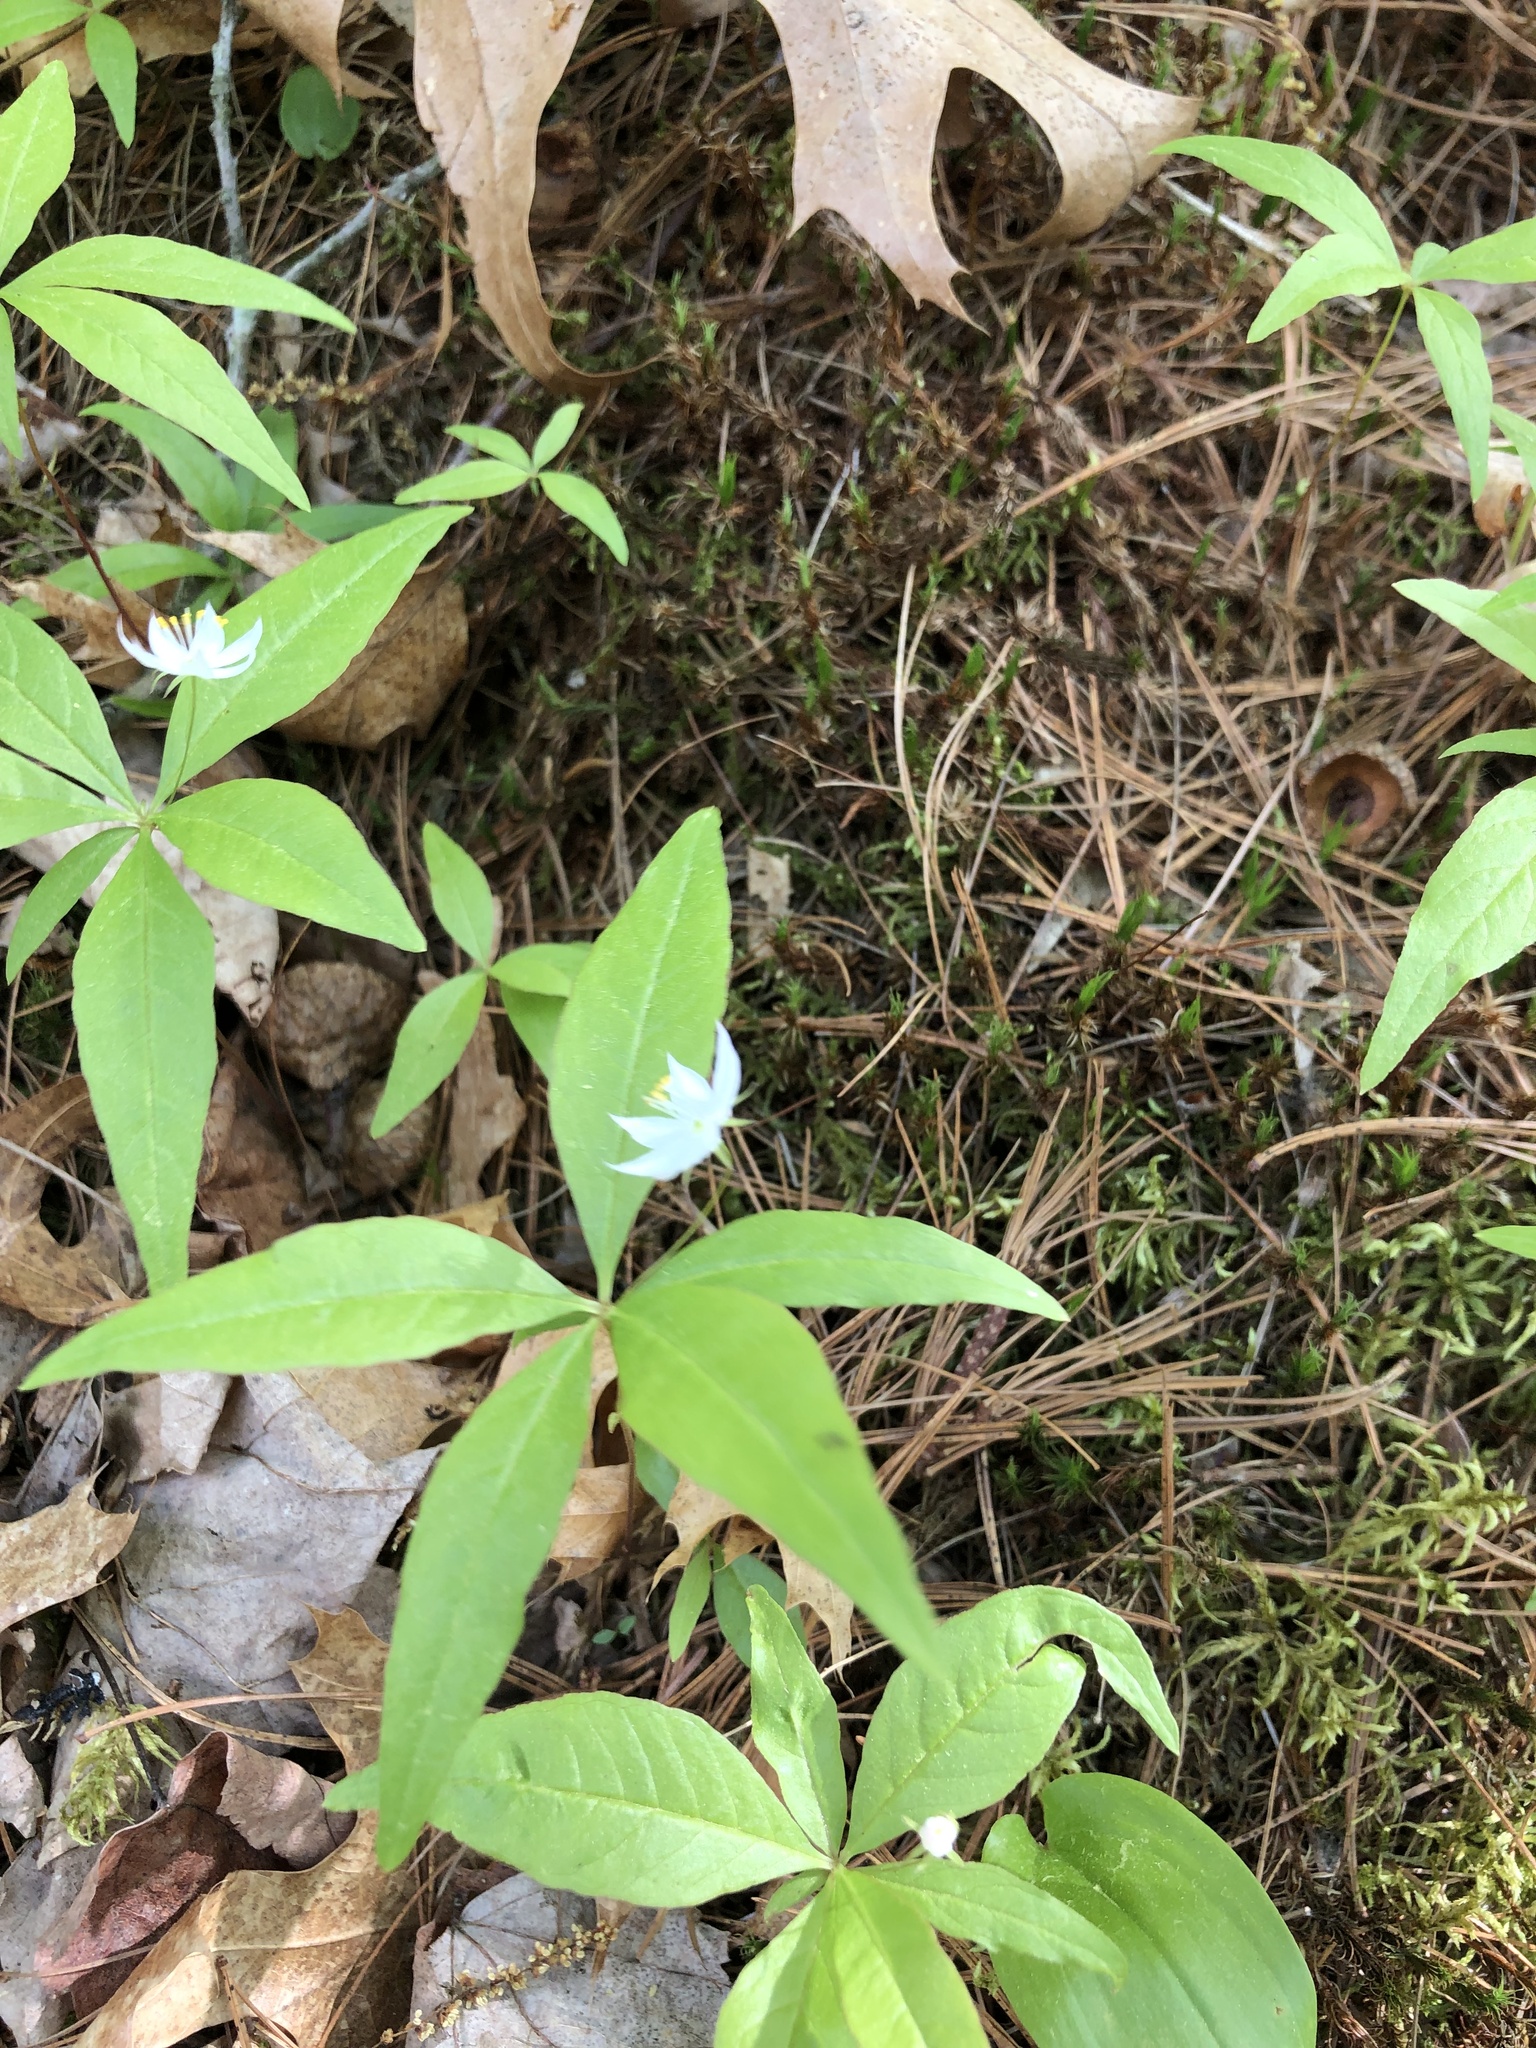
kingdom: Plantae
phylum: Tracheophyta
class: Magnoliopsida
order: Ericales
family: Primulaceae
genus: Lysimachia
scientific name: Lysimachia borealis
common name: American starflower
